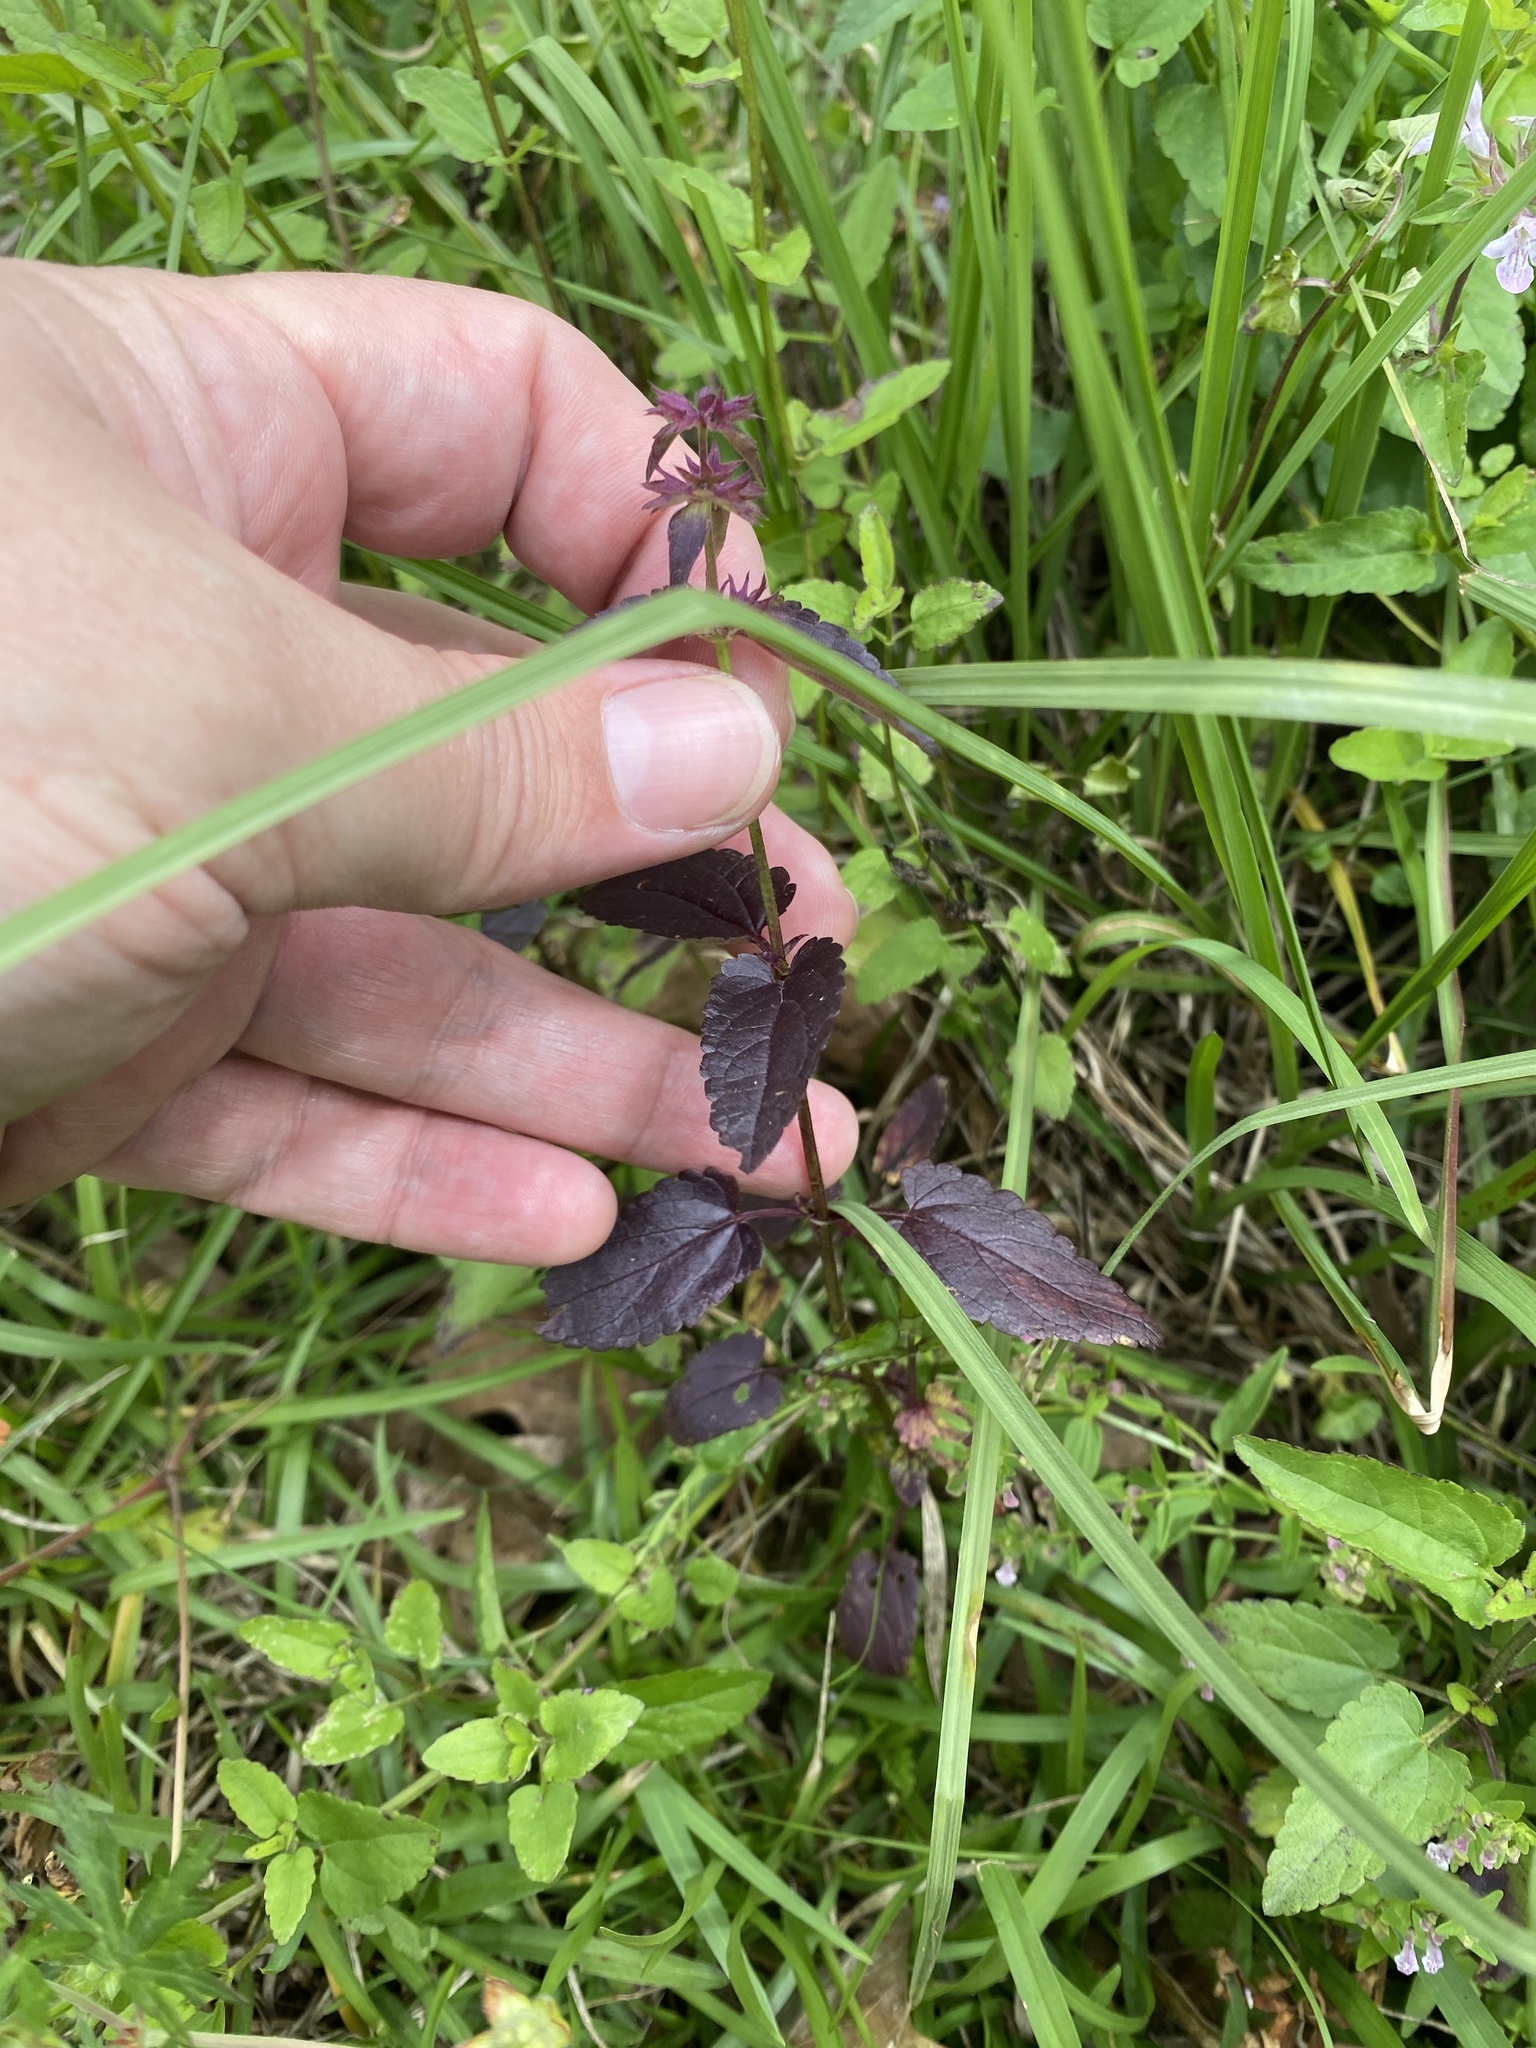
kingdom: Plantae
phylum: Tracheophyta
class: Magnoliopsida
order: Lamiales
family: Lamiaceae
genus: Stachys
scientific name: Stachys floridana
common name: Florida betony
